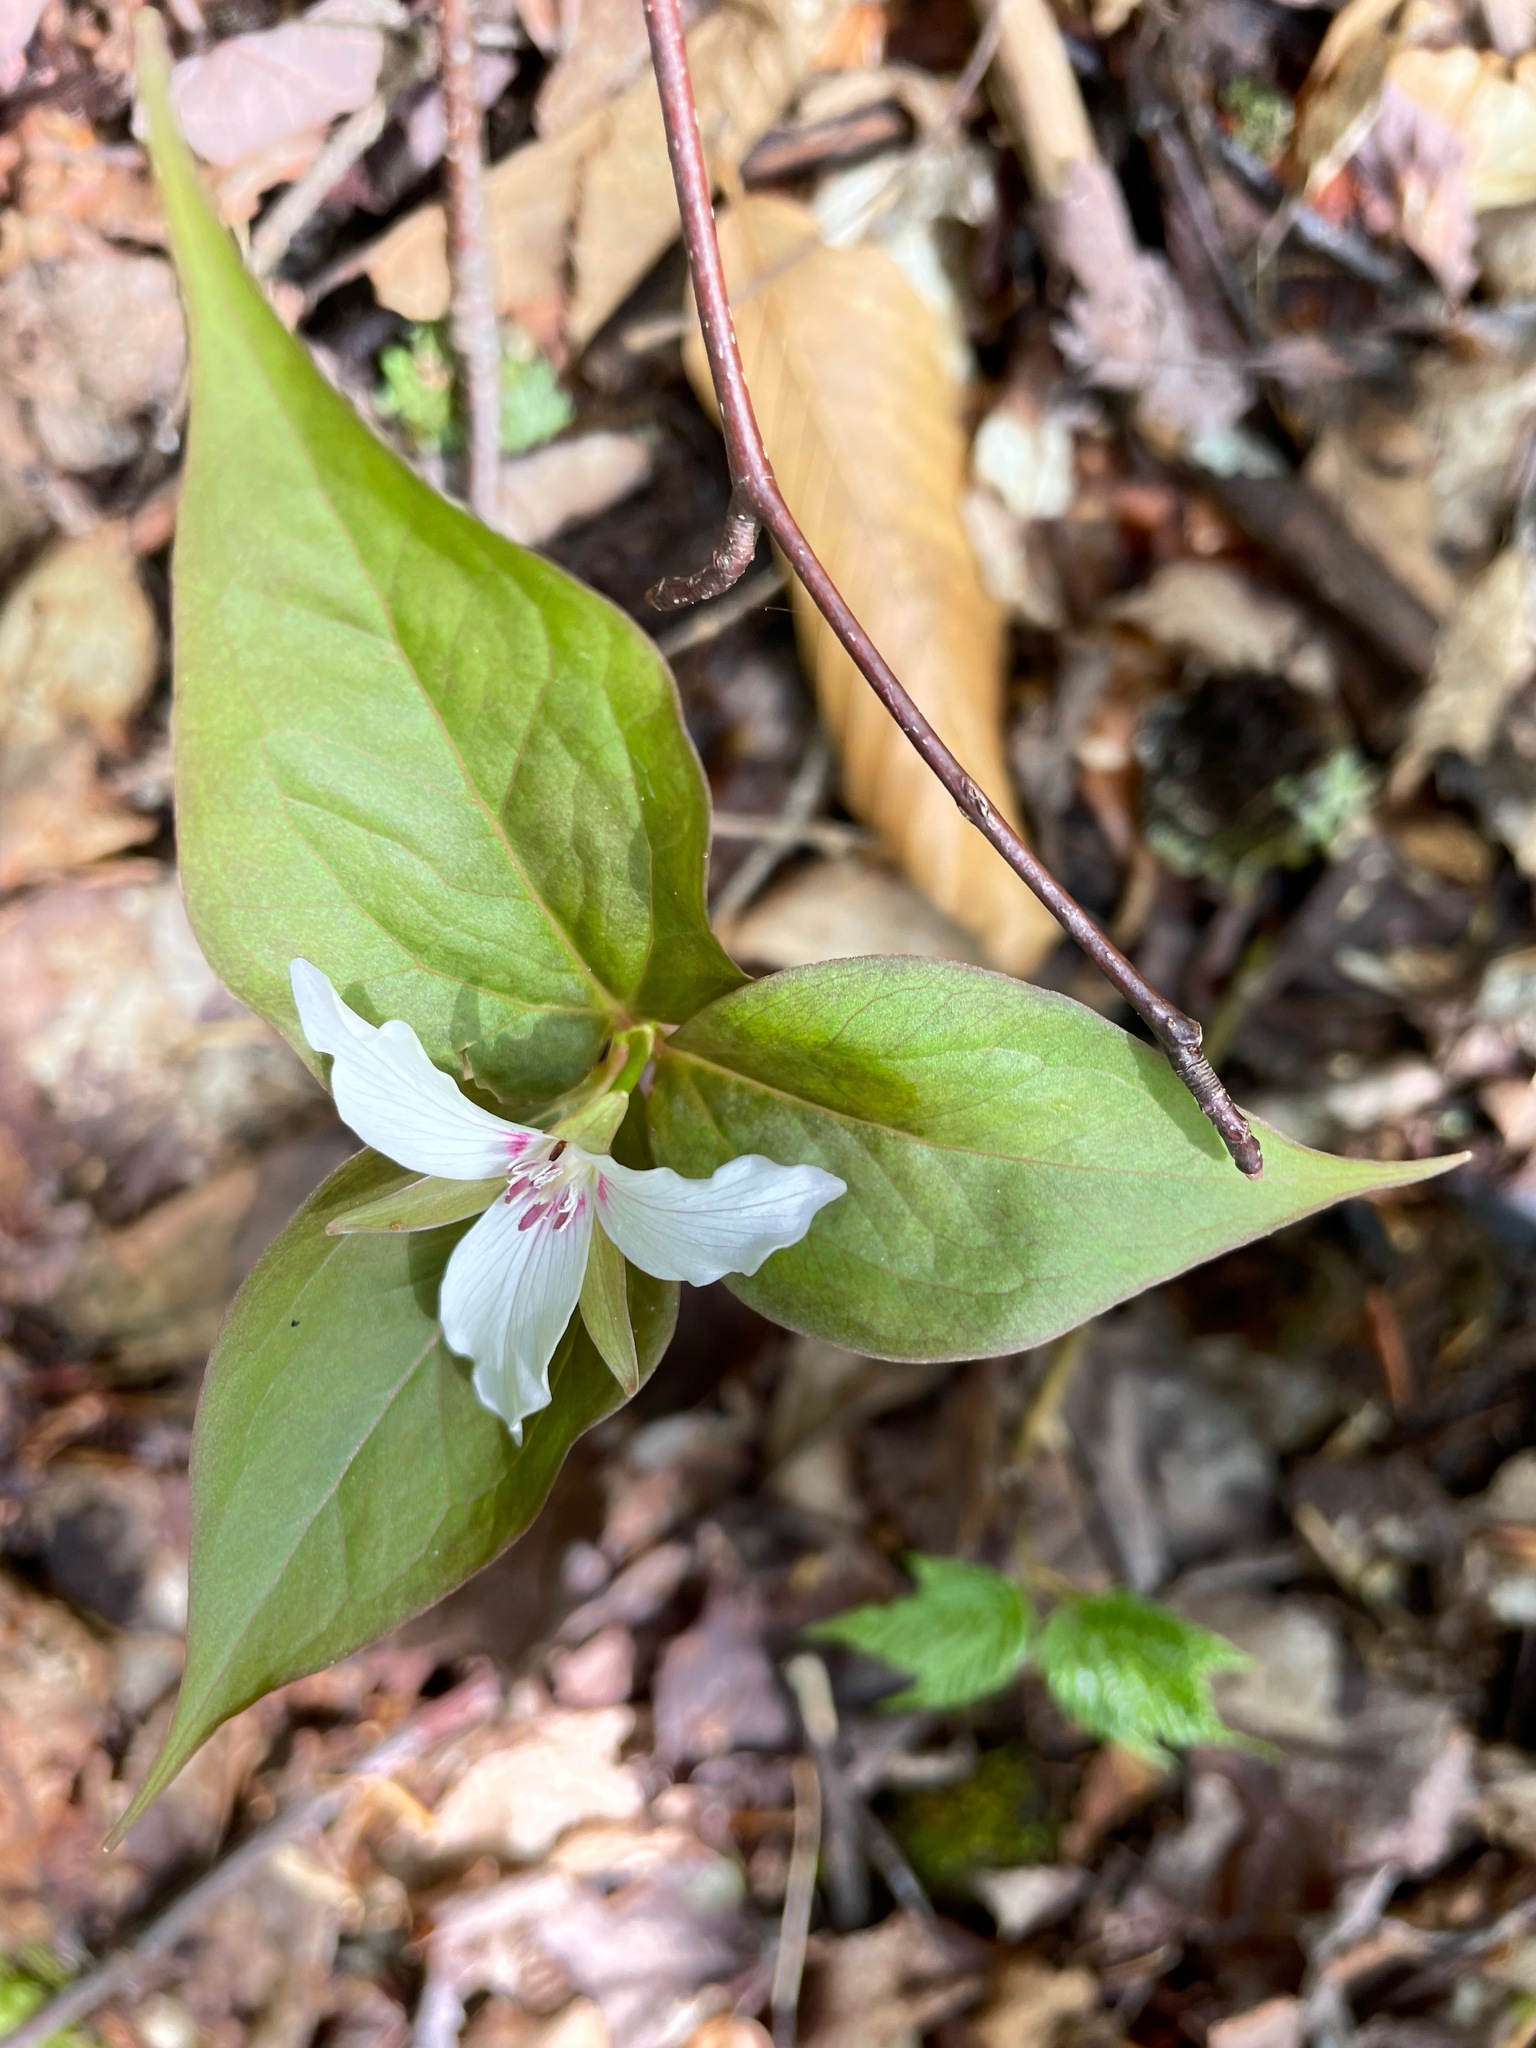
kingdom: Plantae
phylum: Tracheophyta
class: Liliopsida
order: Liliales
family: Melanthiaceae
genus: Trillium
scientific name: Trillium undulatum
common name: Paint trillium
